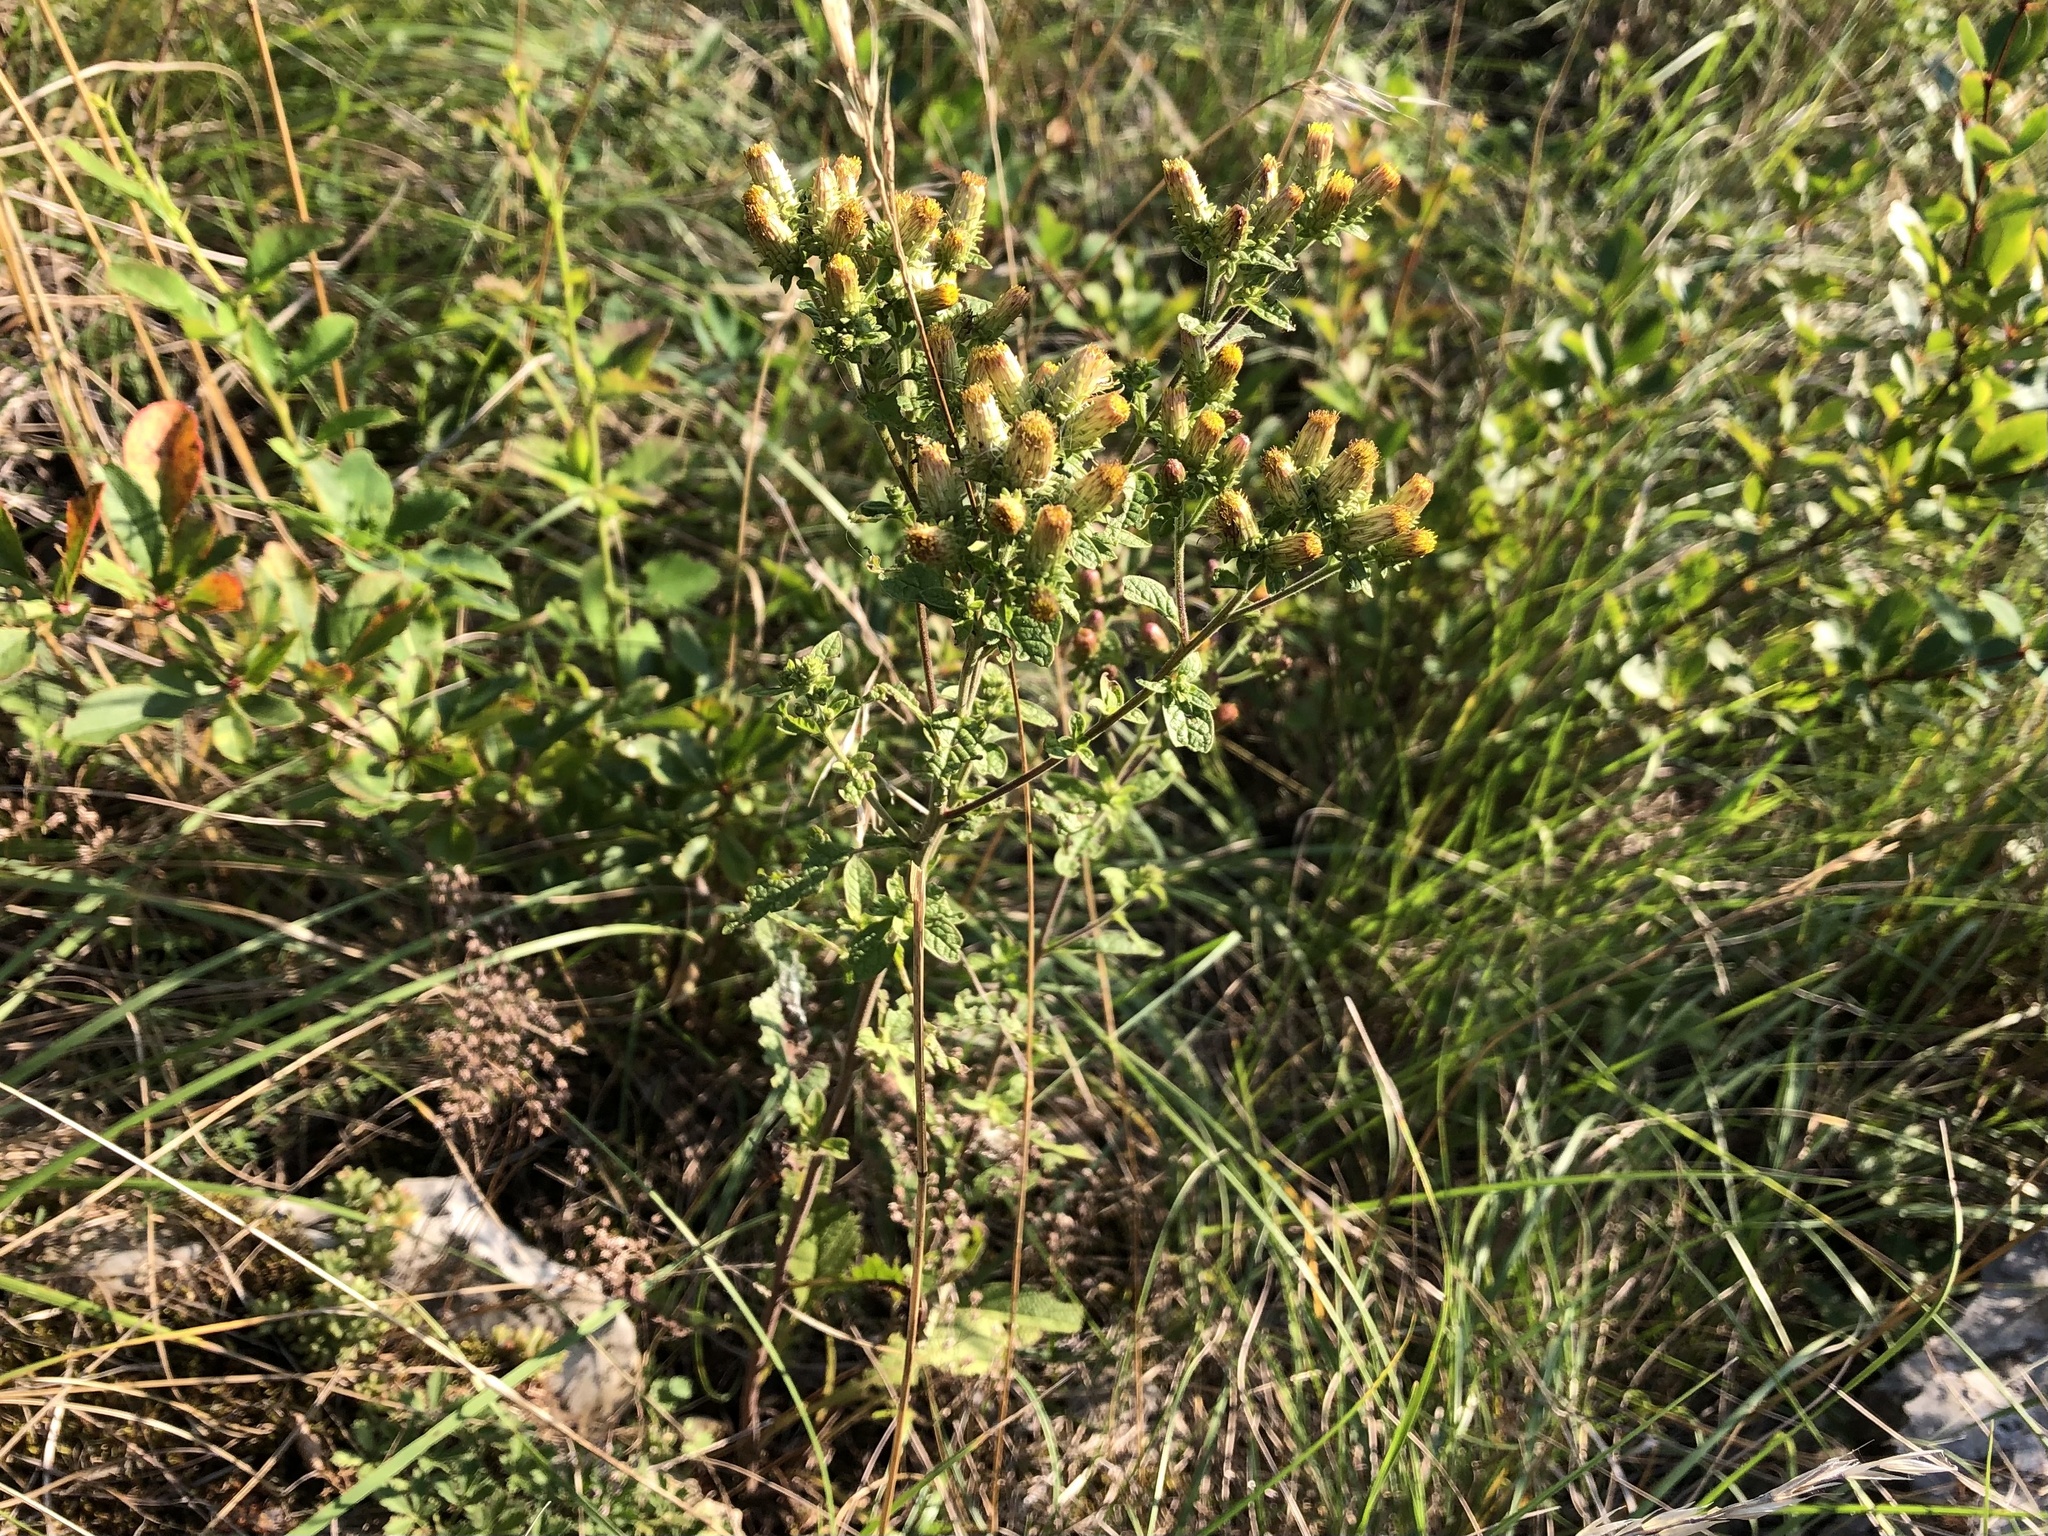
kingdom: Plantae
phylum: Tracheophyta
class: Magnoliopsida
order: Asterales
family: Asteraceae
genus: Pentanema
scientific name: Pentanema squarrosum
